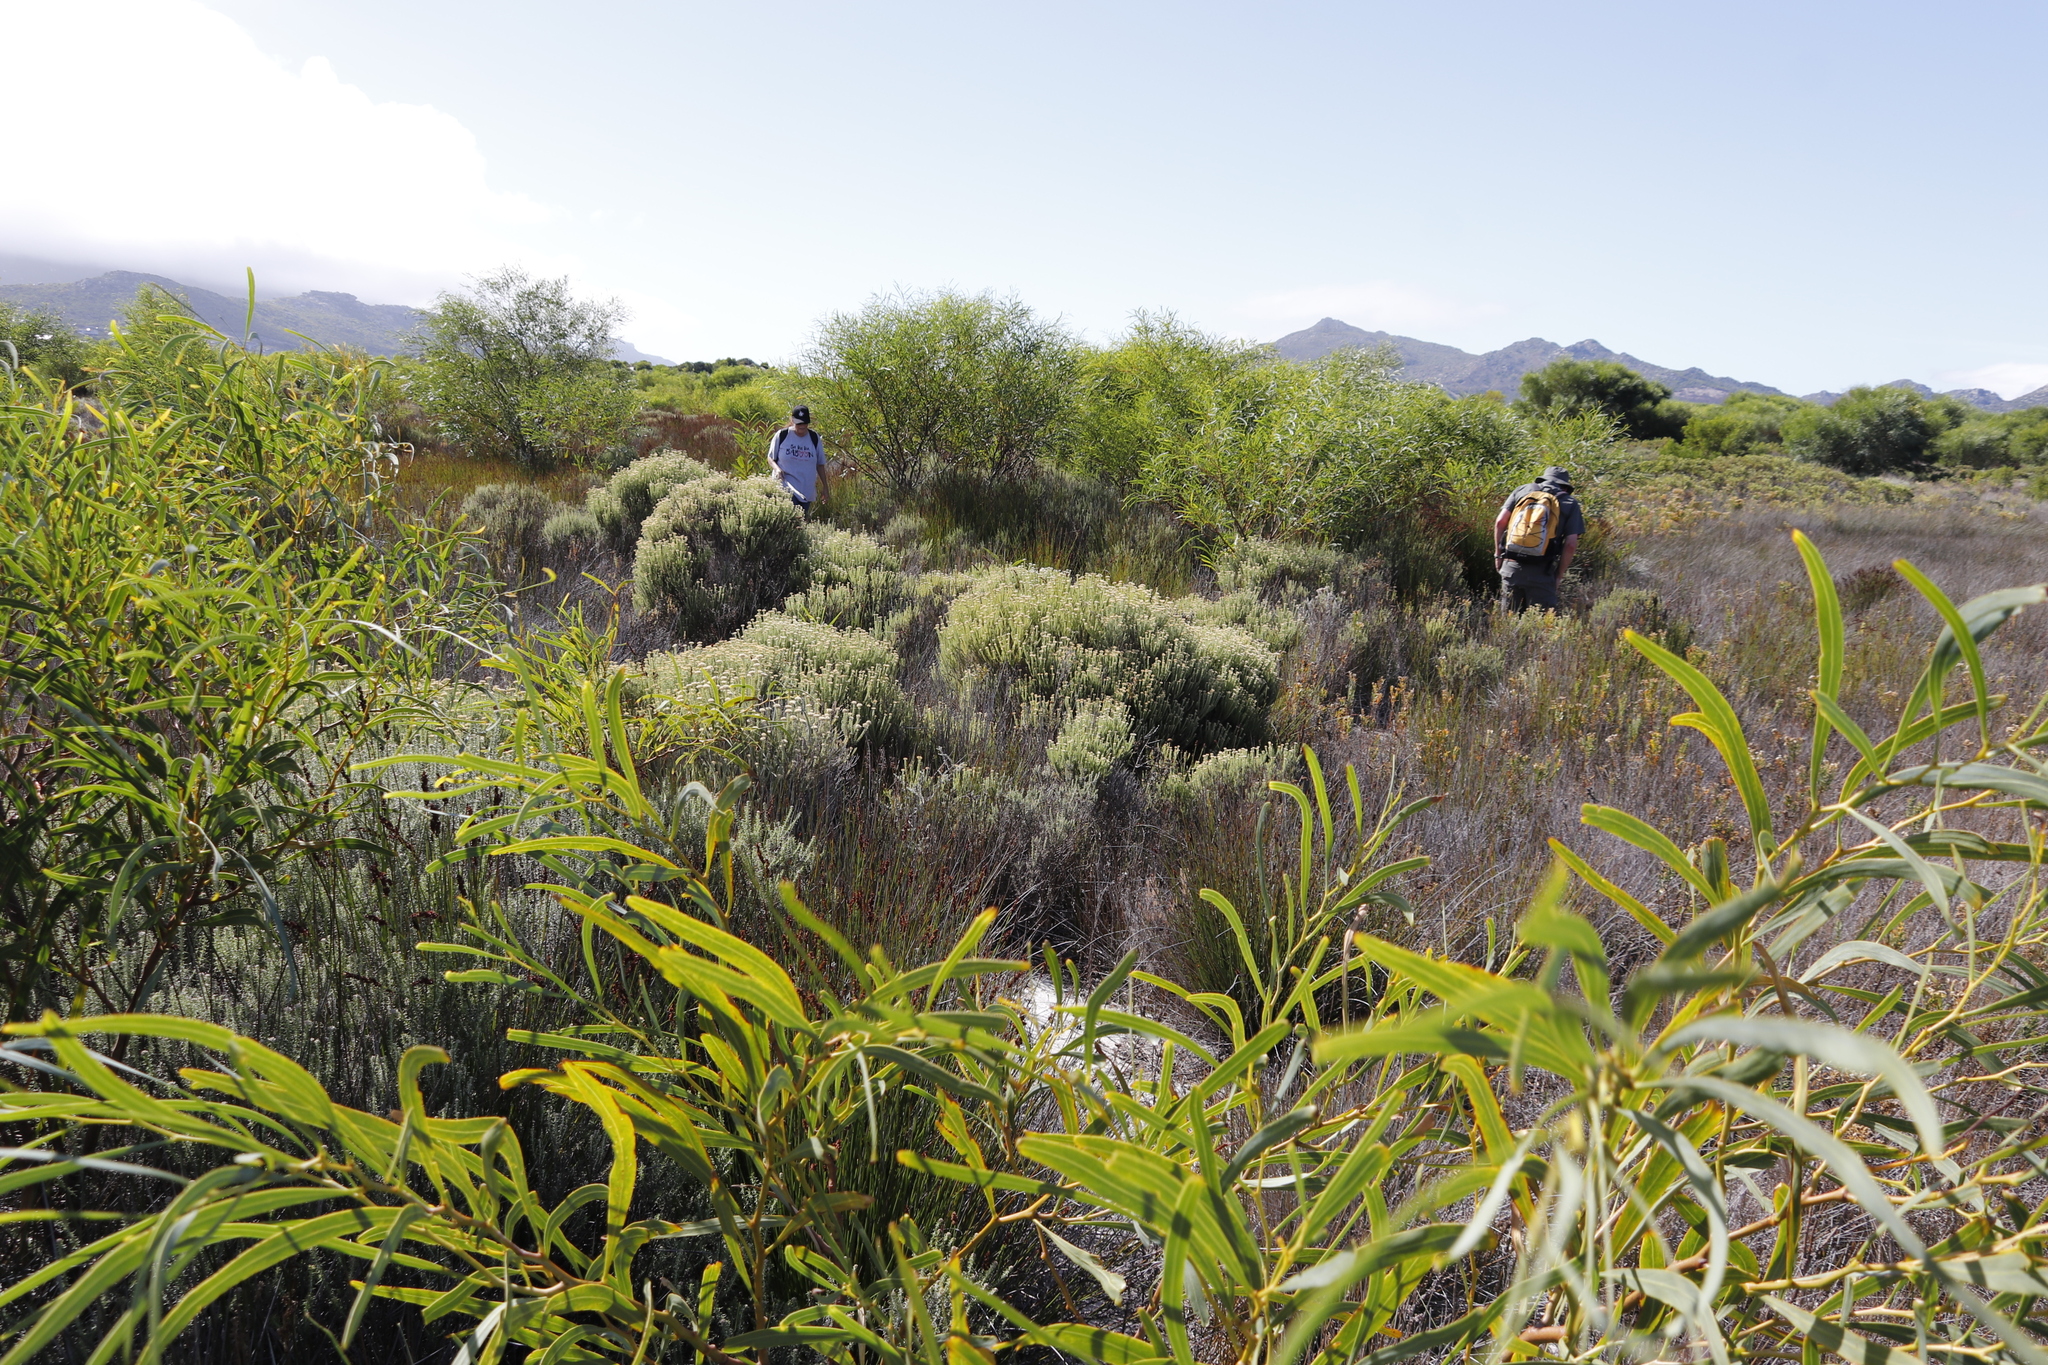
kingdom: Plantae
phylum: Tracheophyta
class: Magnoliopsida
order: Fabales
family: Fabaceae
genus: Acacia
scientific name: Acacia saligna
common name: Orange wattle
